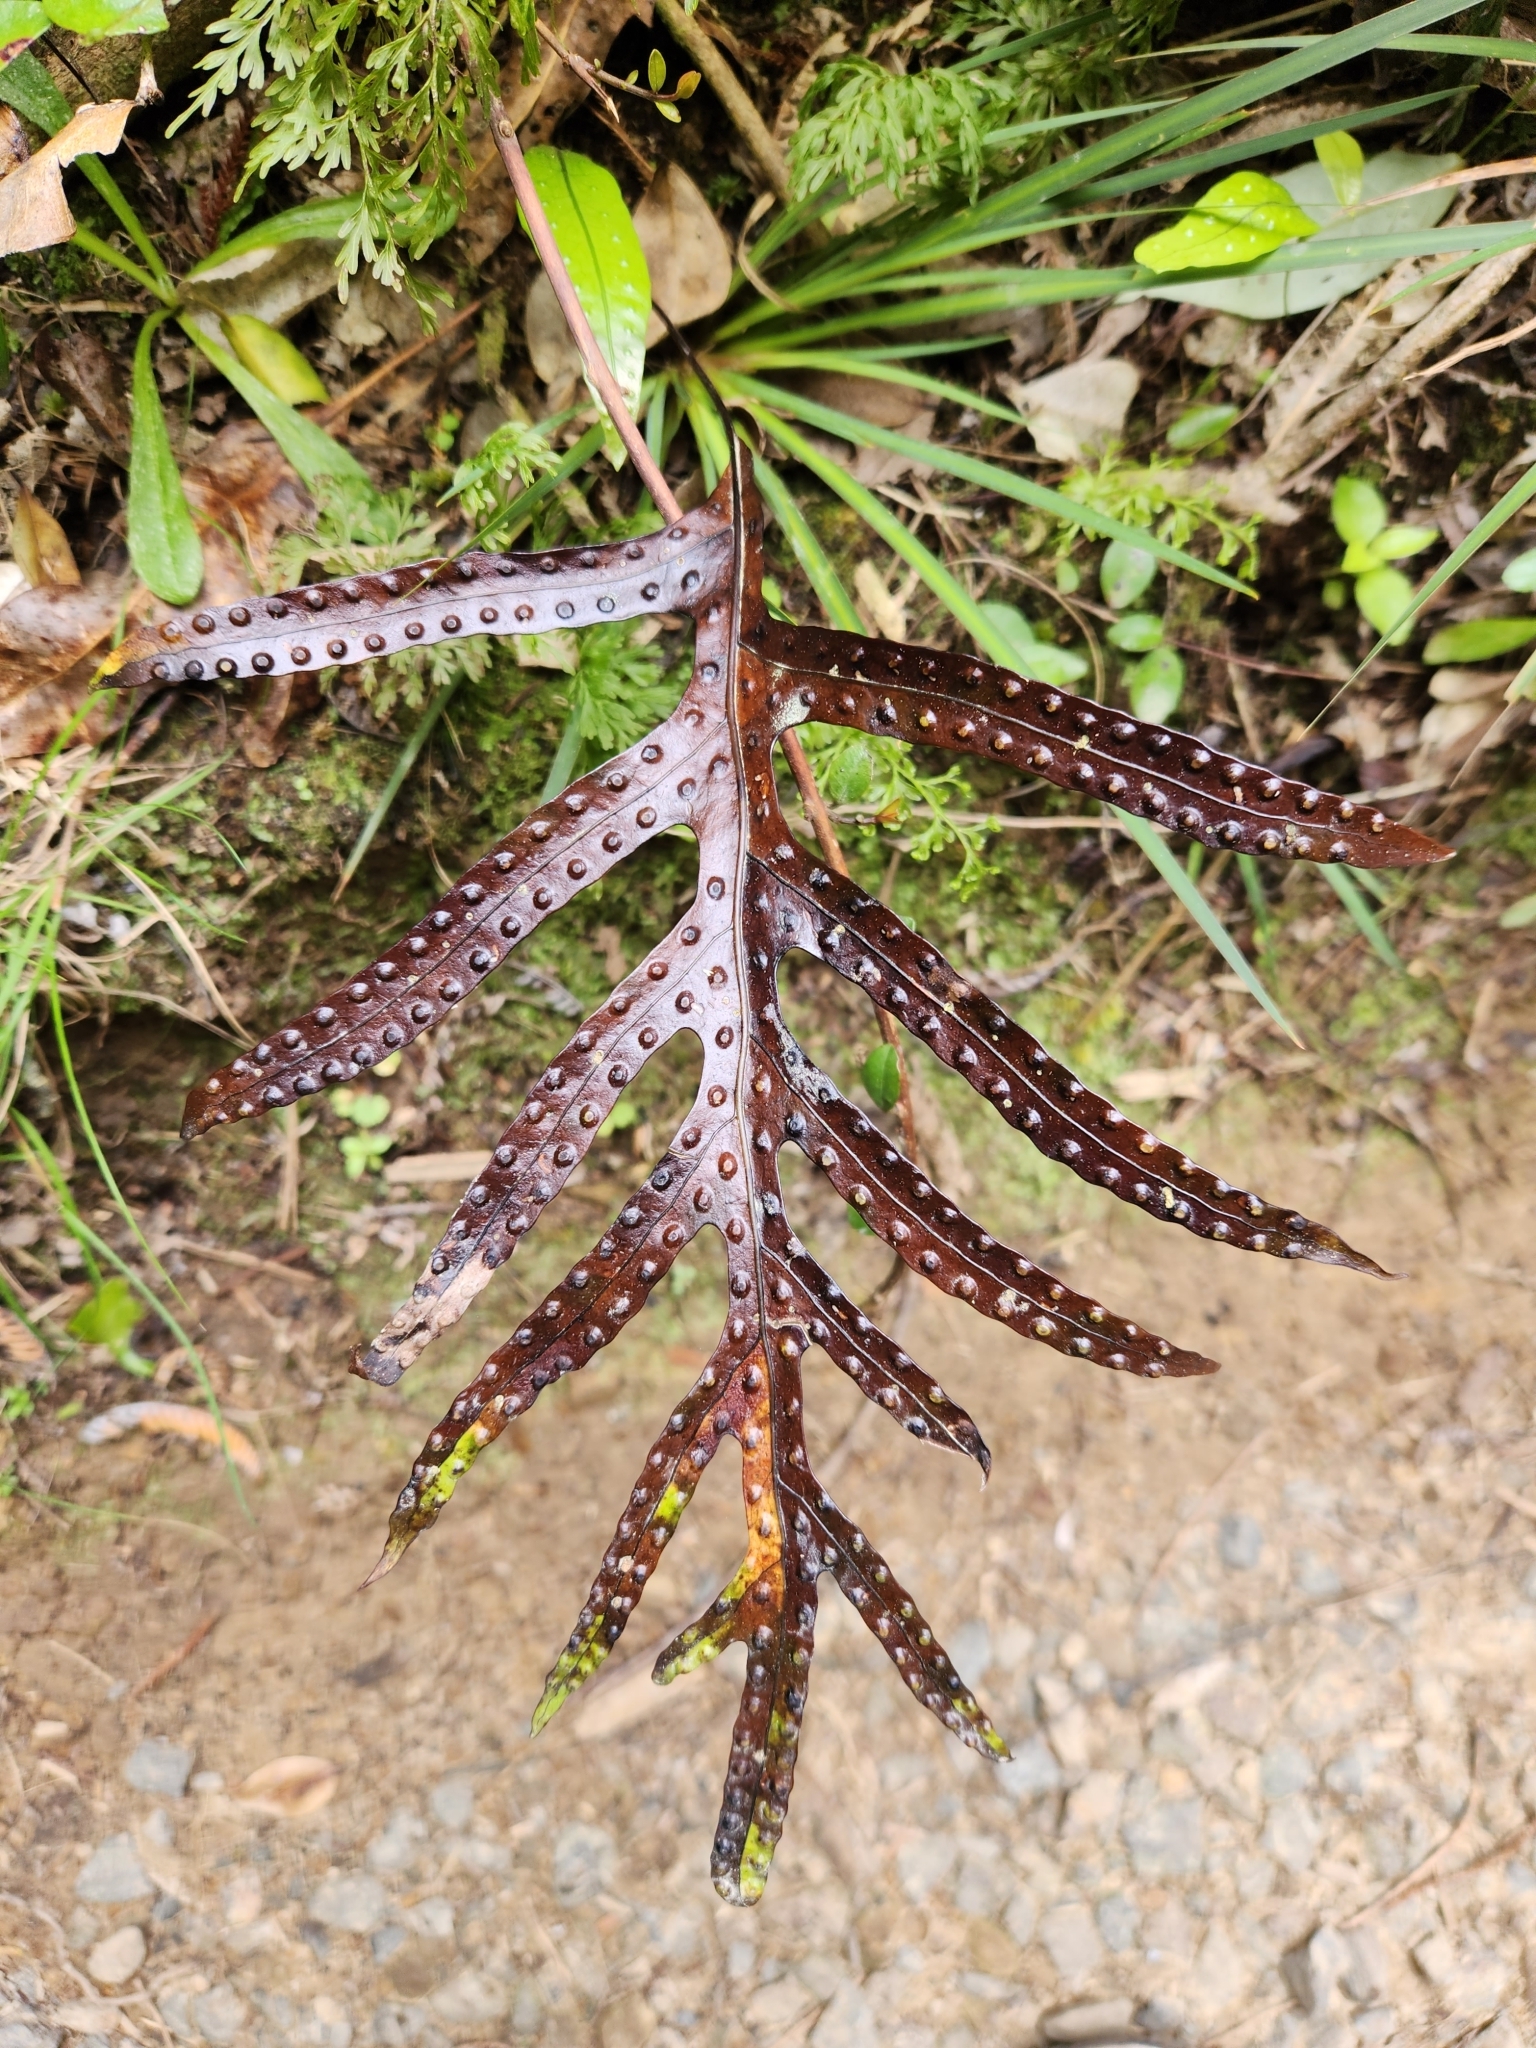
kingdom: Plantae
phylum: Tracheophyta
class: Polypodiopsida
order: Polypodiales
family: Polypodiaceae
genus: Lecanopteris
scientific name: Lecanopteris pustulata
